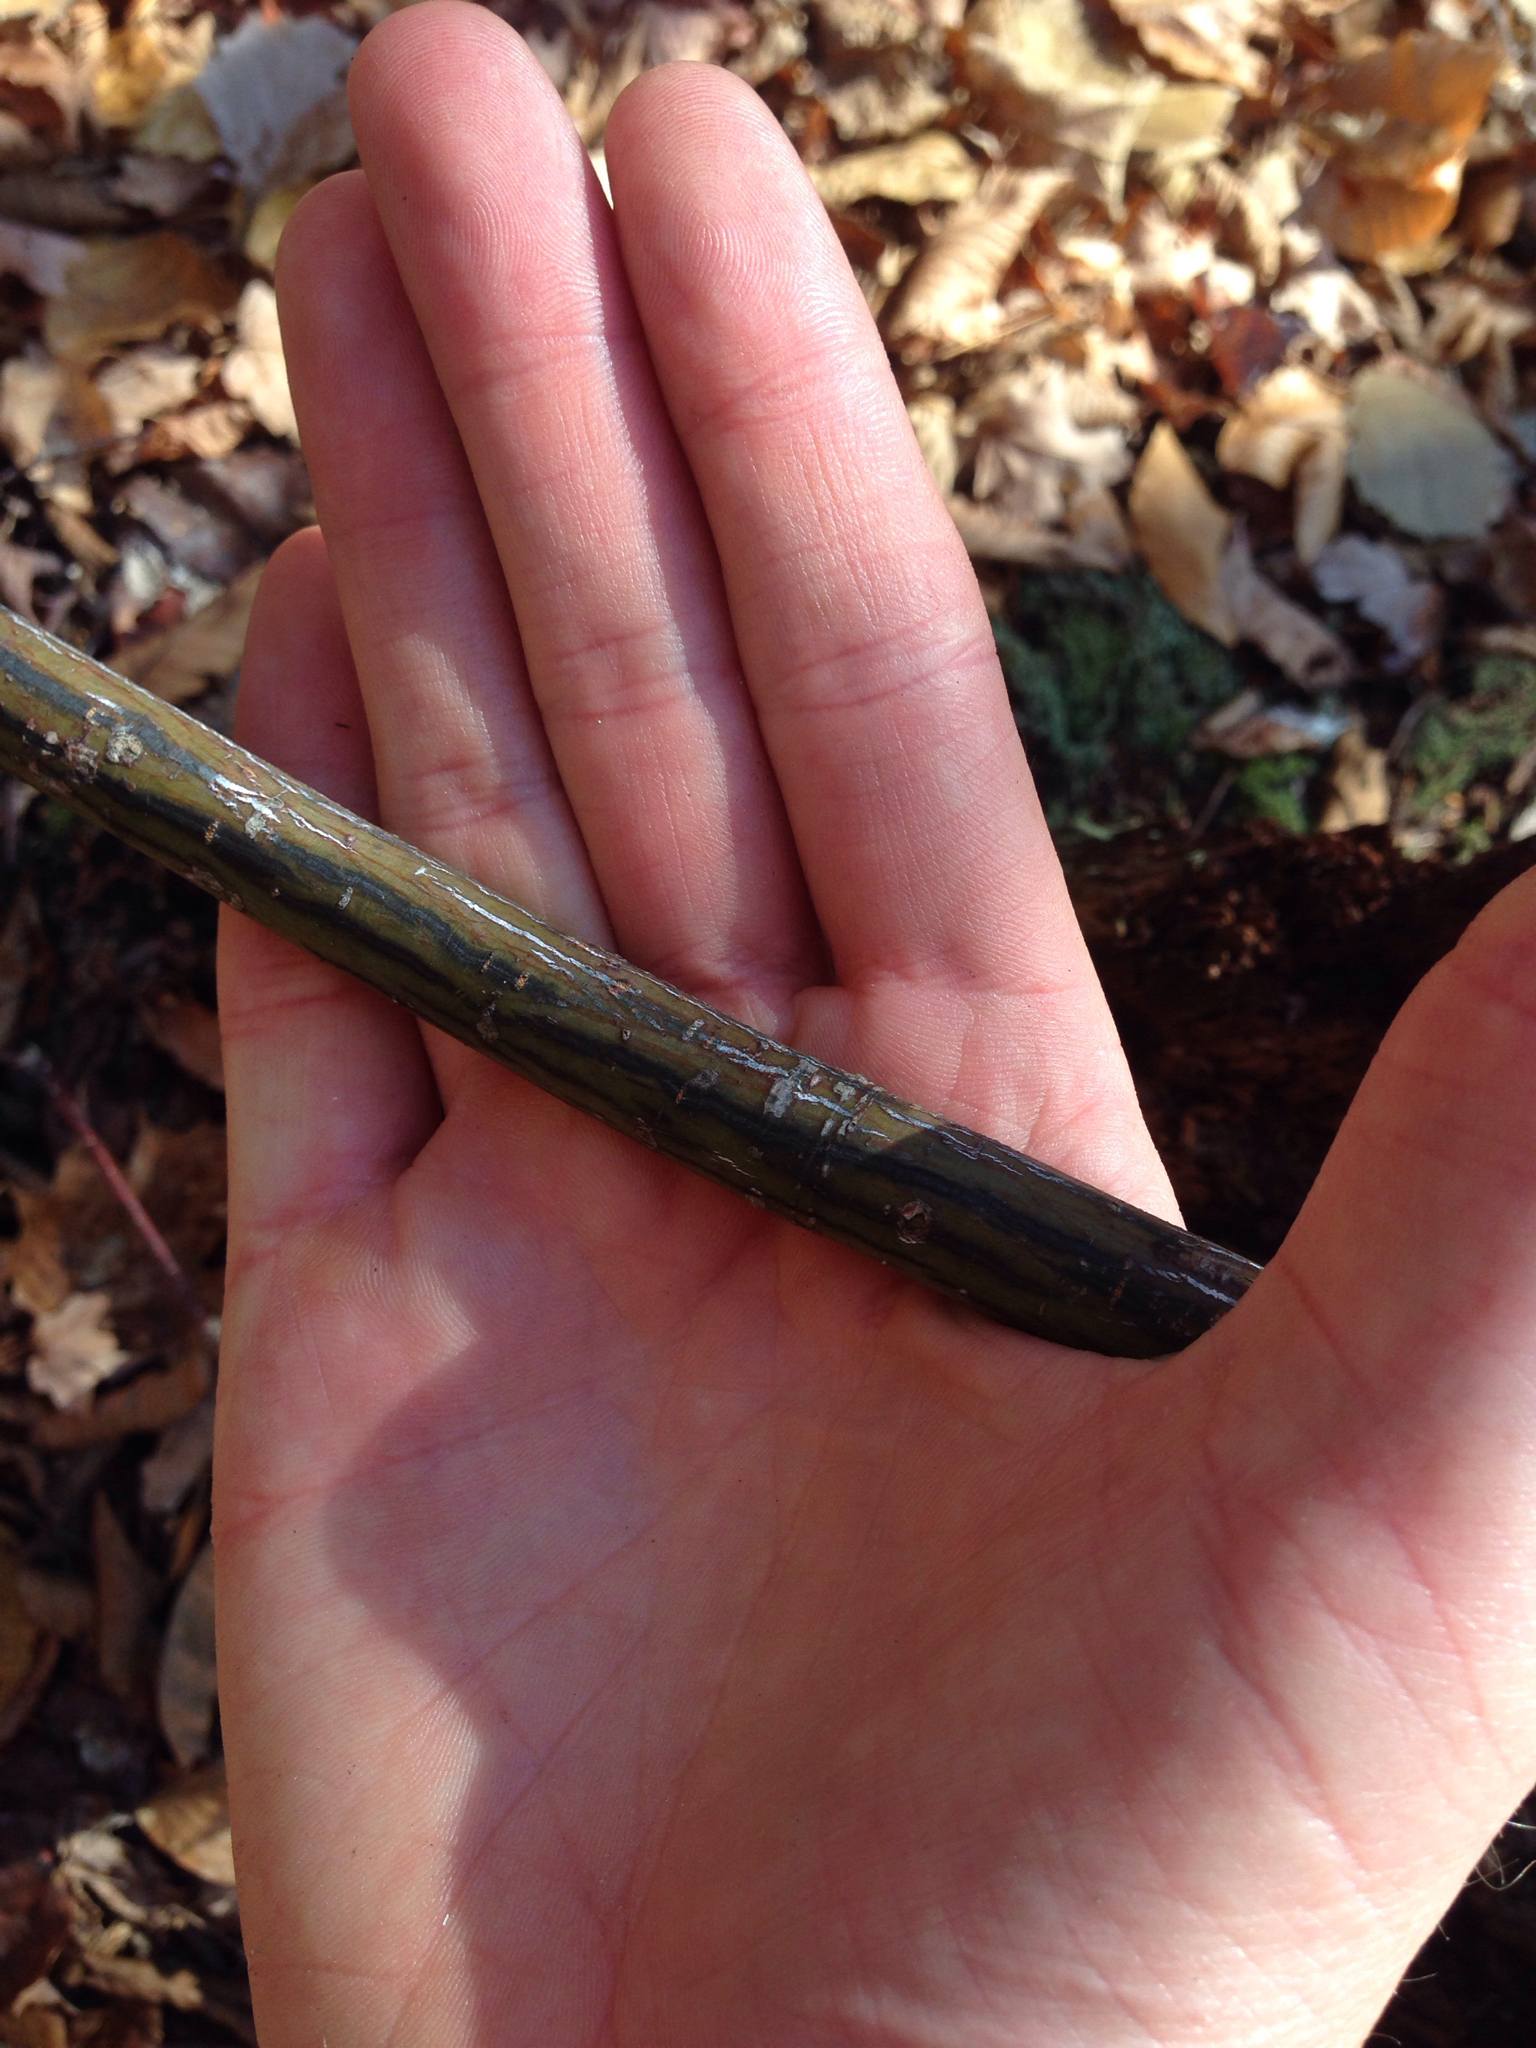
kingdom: Plantae
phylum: Tracheophyta
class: Magnoliopsida
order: Sapindales
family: Sapindaceae
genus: Acer
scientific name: Acer pensylvanicum
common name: Moosewood
